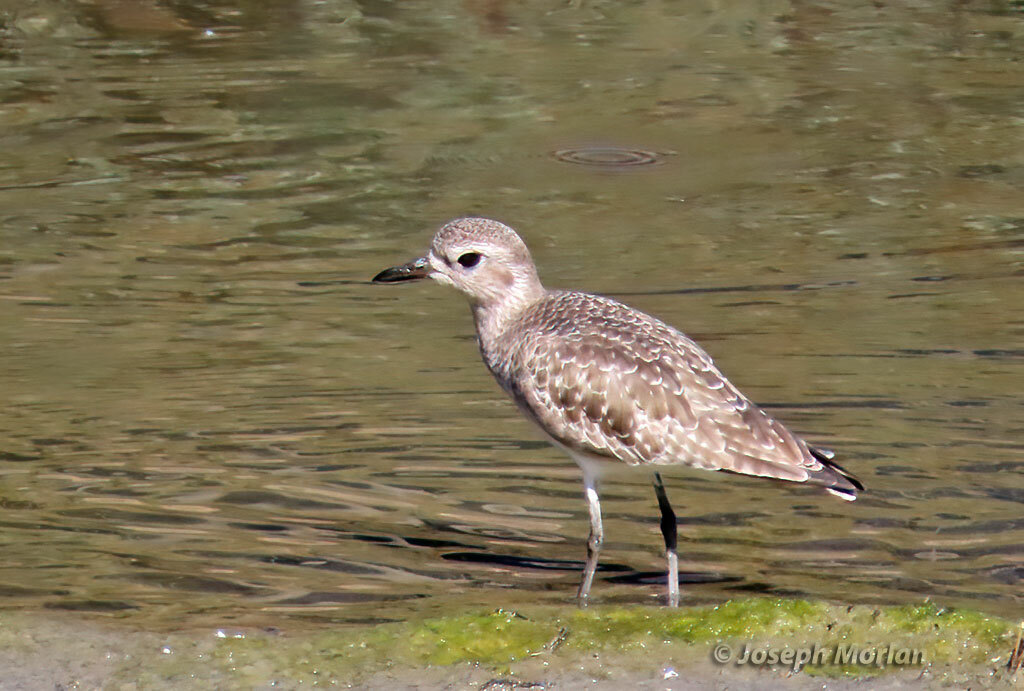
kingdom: Animalia
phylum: Chordata
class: Aves
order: Charadriiformes
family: Charadriidae
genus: Pluvialis
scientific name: Pluvialis squatarola
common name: Grey plover
